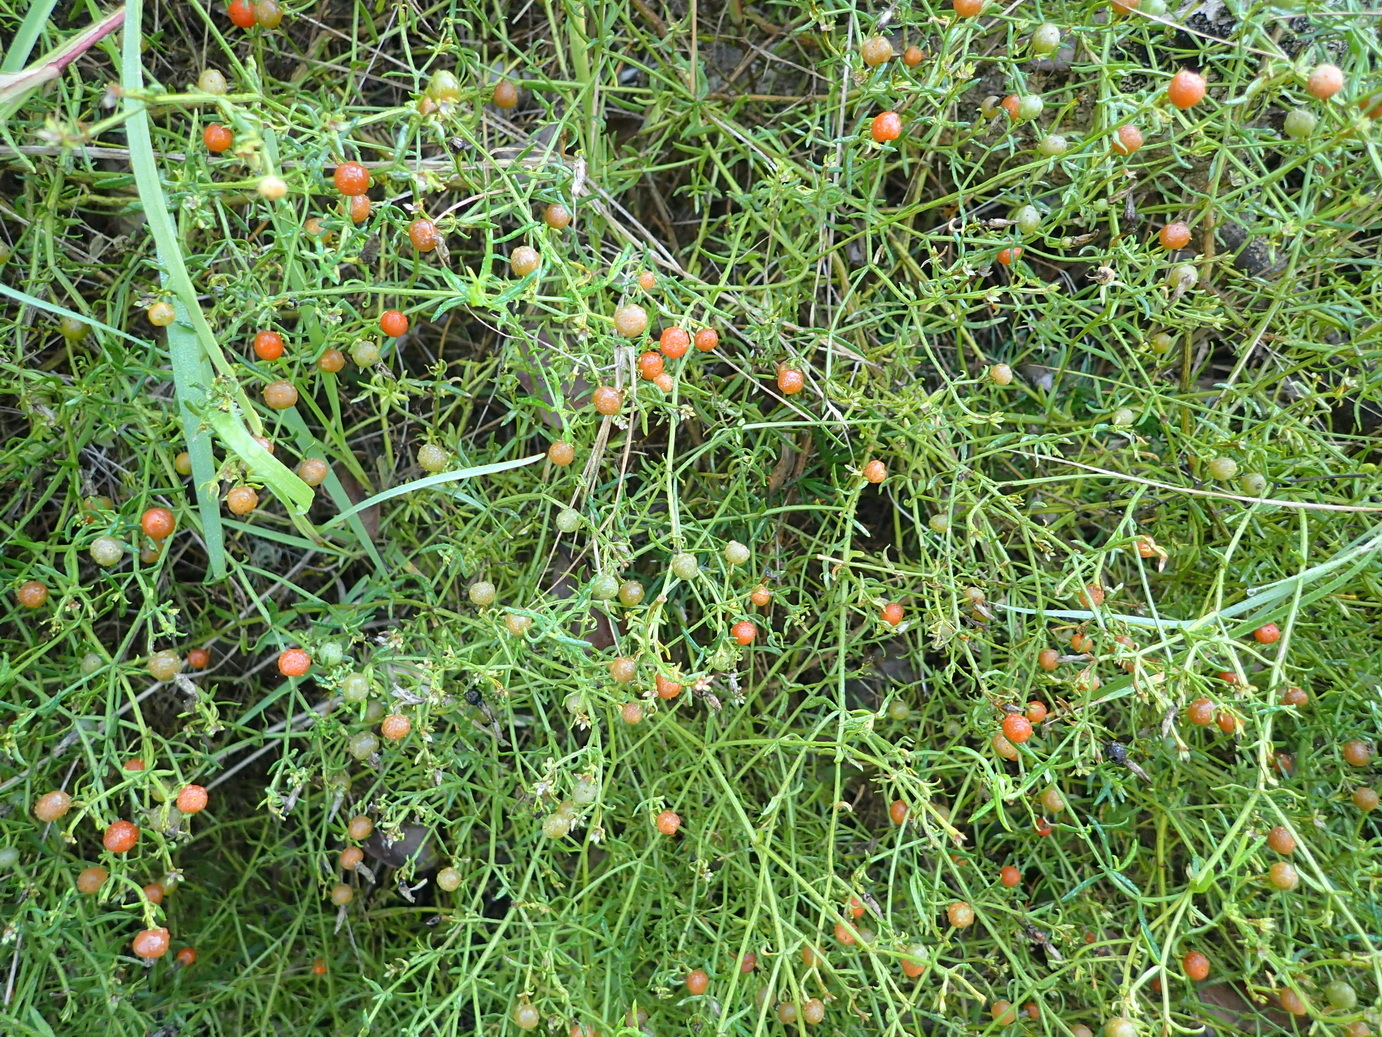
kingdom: Plantae
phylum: Tracheophyta
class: Magnoliopsida
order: Gentianales
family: Gentianaceae
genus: Chironia
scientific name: Chironia baccifera
